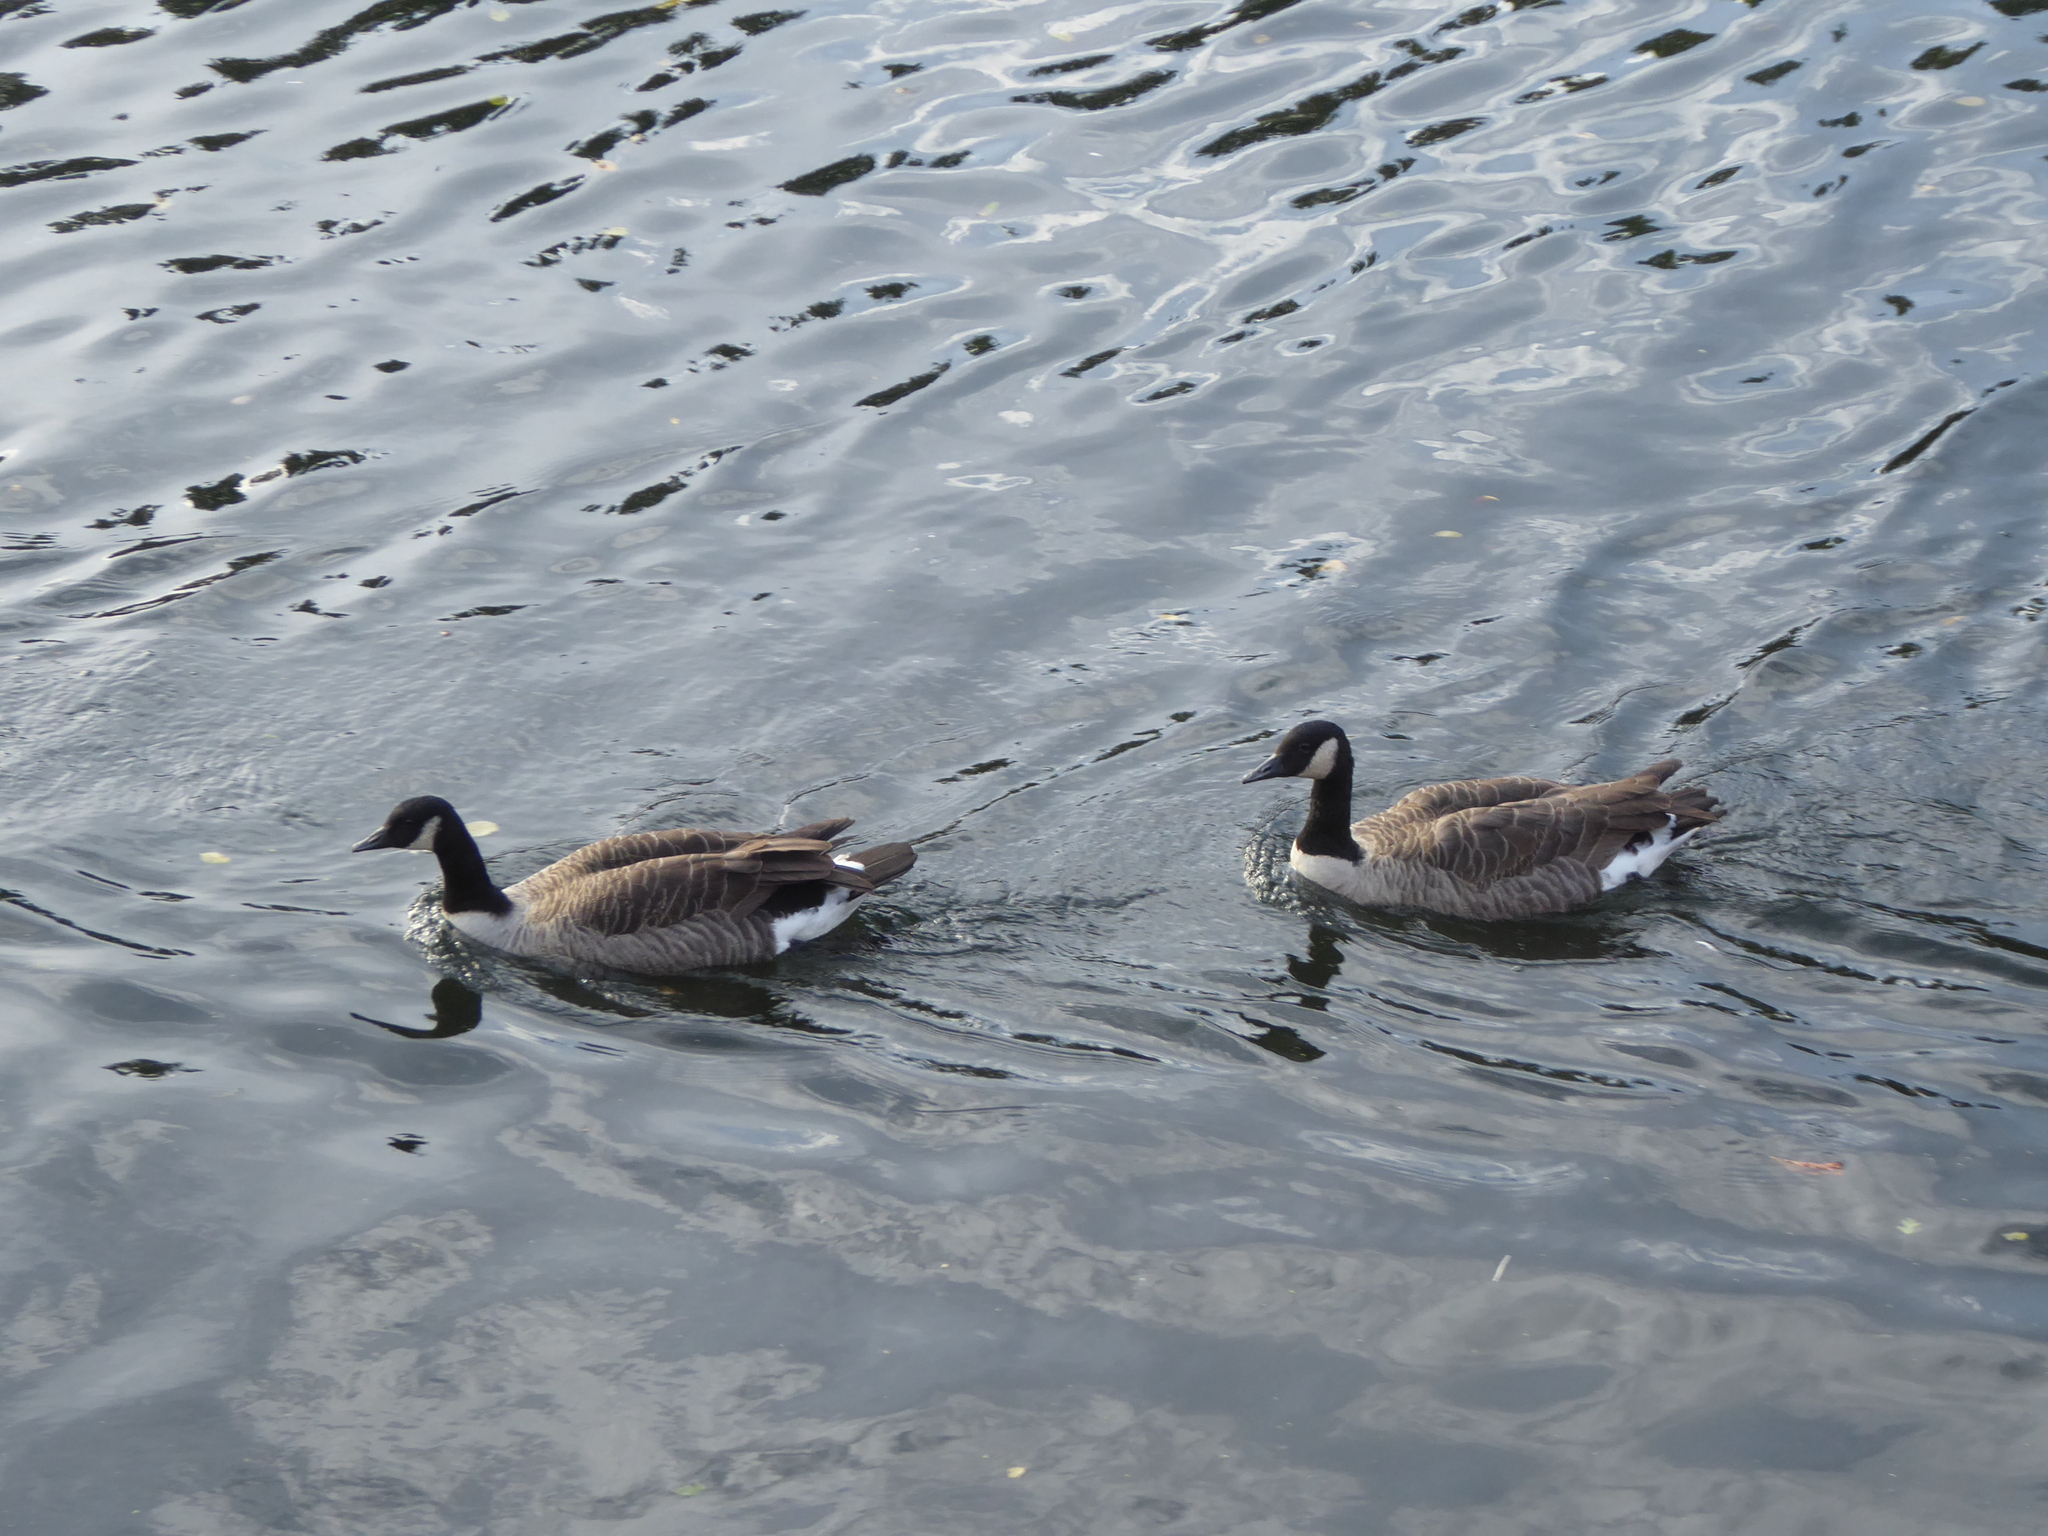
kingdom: Animalia
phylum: Chordata
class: Aves
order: Anseriformes
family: Anatidae
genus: Branta
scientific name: Branta canadensis
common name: Canada goose
